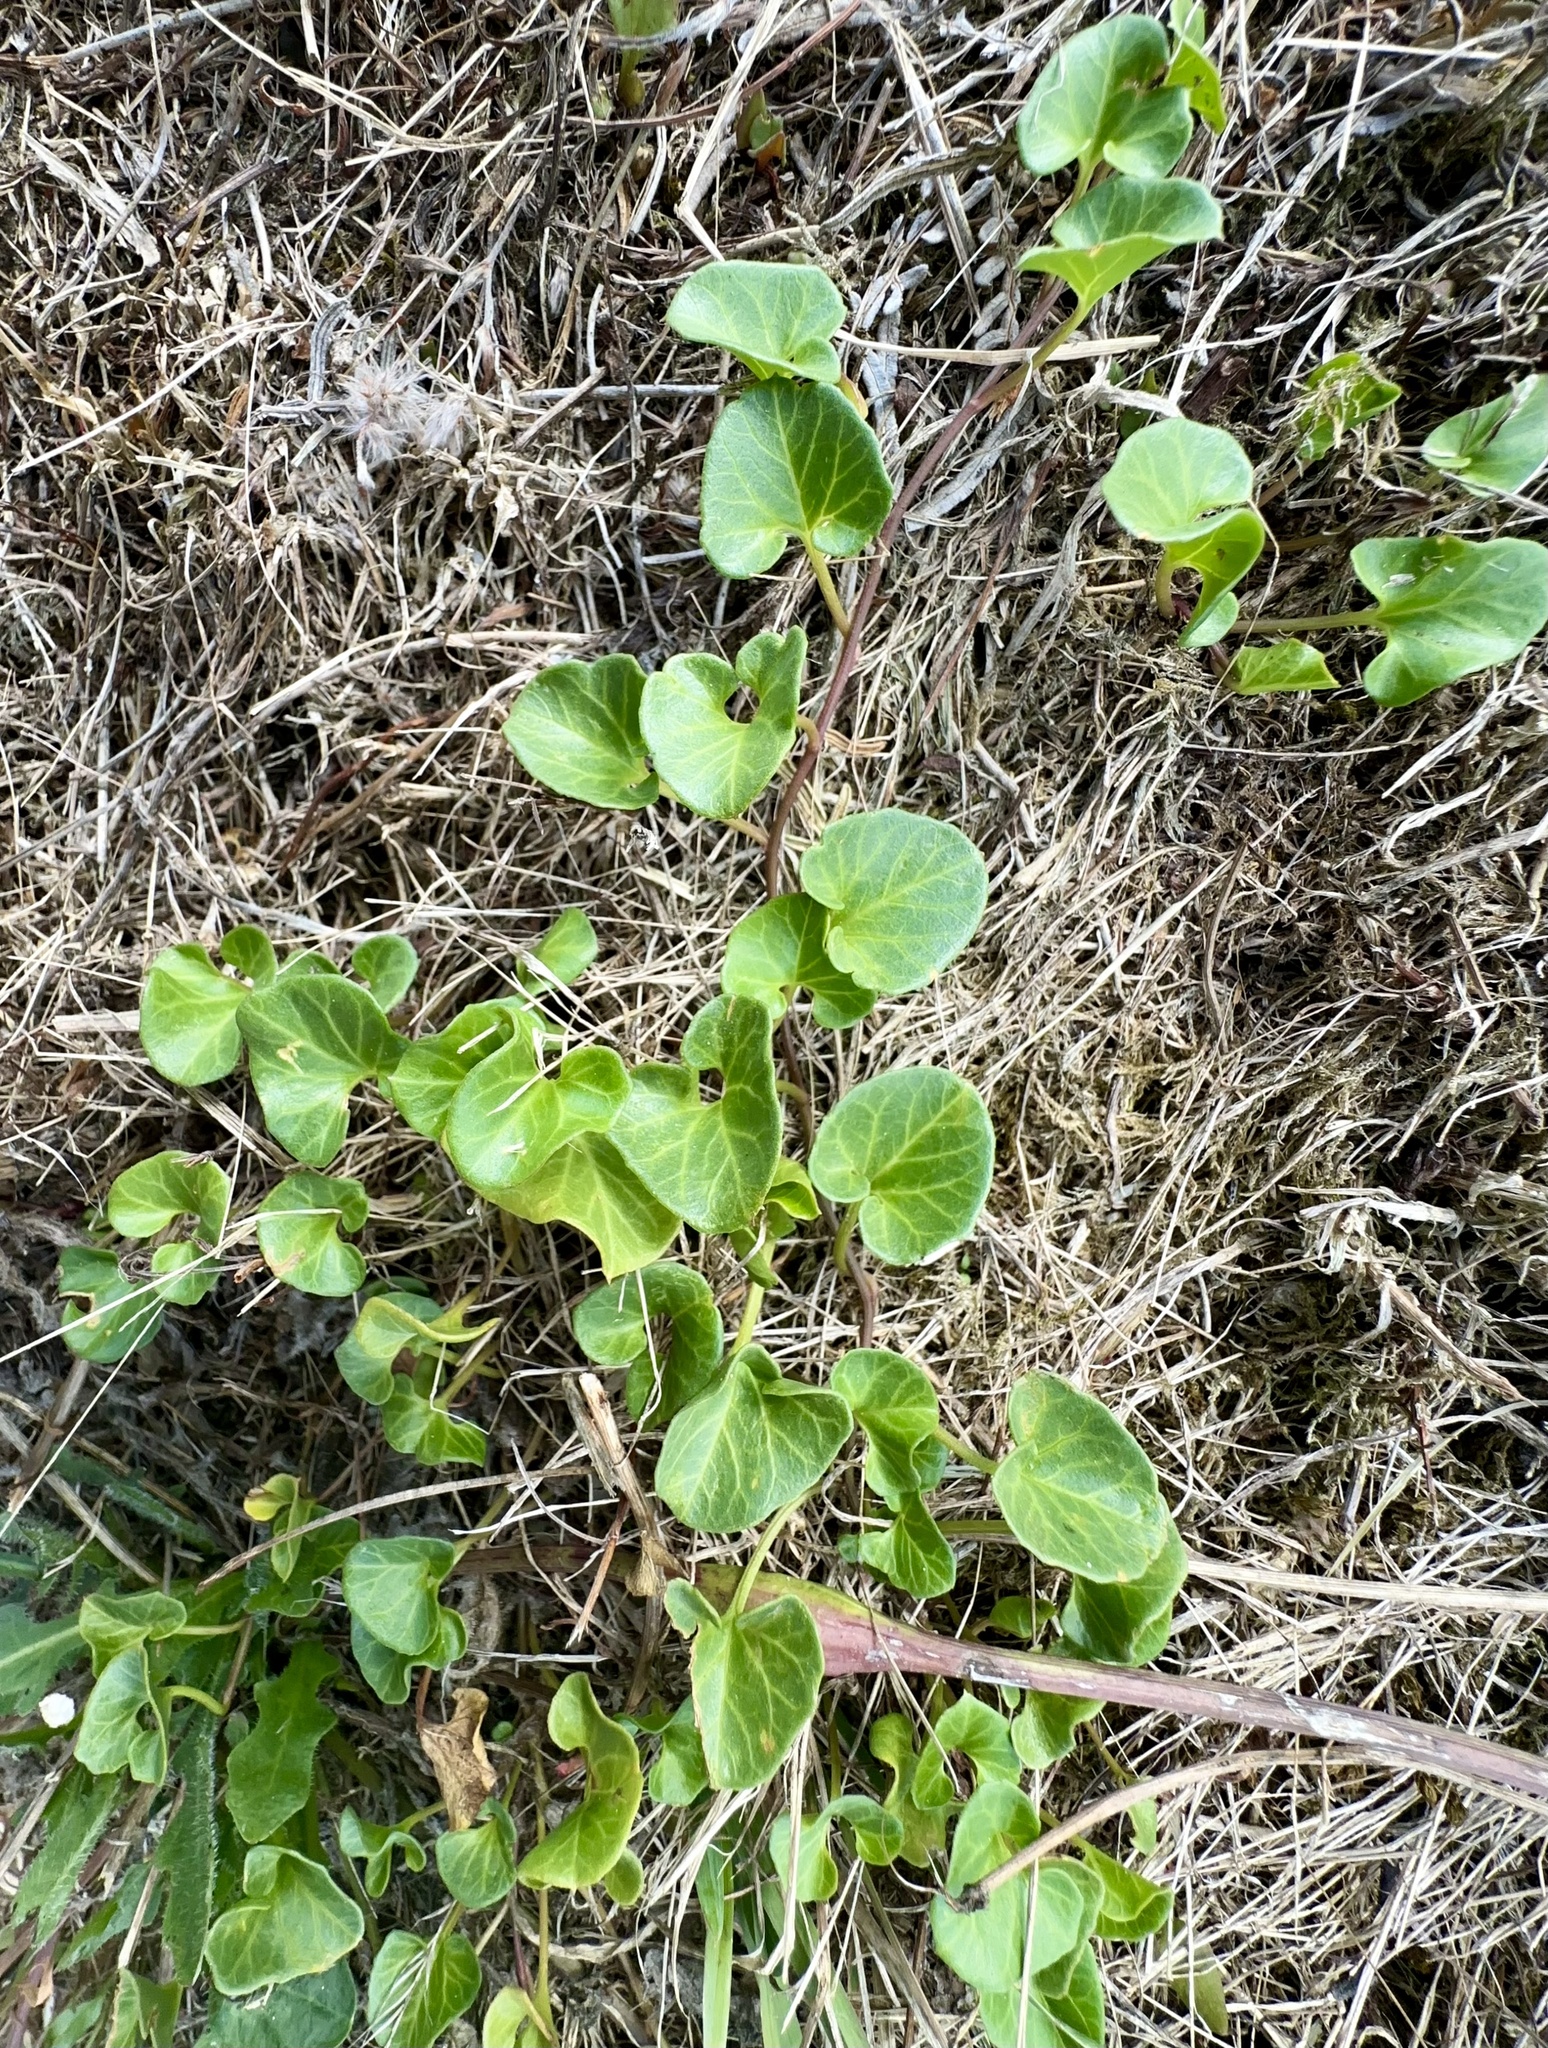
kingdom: Plantae
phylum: Tracheophyta
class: Magnoliopsida
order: Solanales
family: Convolvulaceae
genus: Calystegia
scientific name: Calystegia soldanella
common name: Sea bindweed
